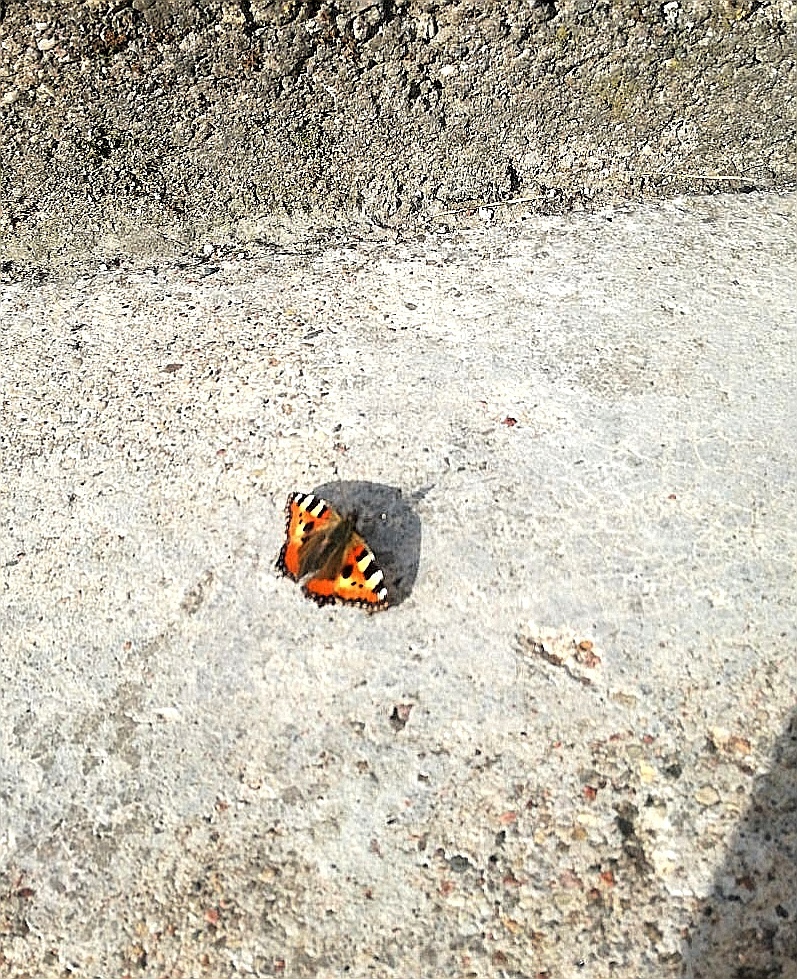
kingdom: Animalia
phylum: Arthropoda
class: Insecta
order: Lepidoptera
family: Nymphalidae
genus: Aglais
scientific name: Aglais urticae
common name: Small tortoiseshell
